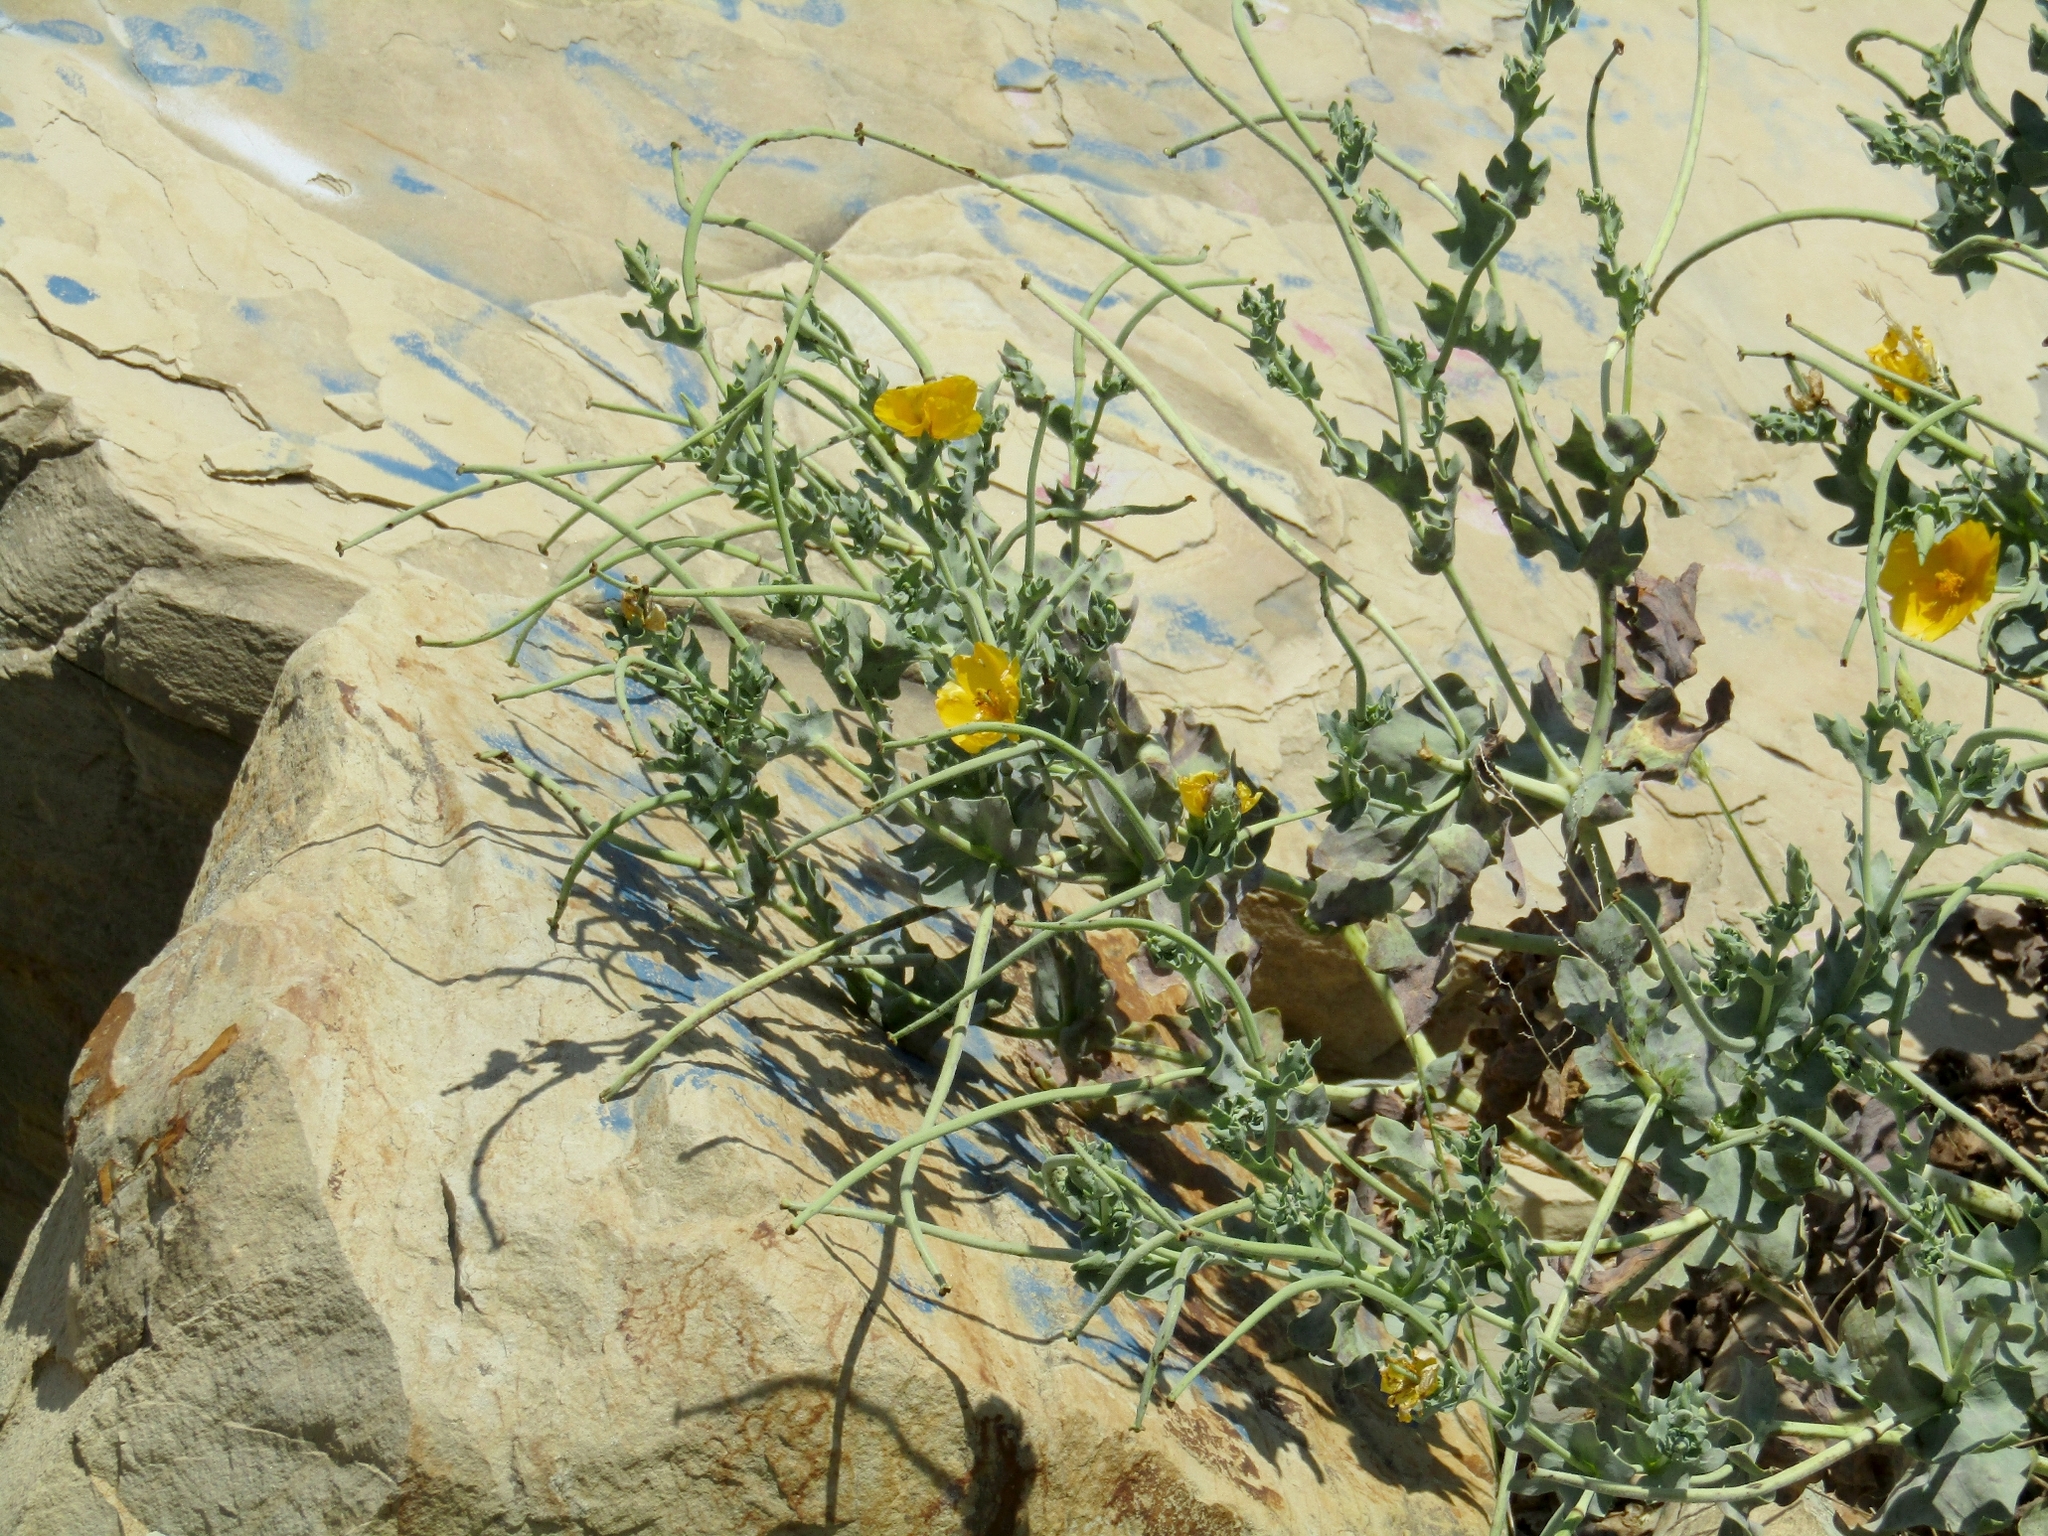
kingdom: Plantae
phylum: Tracheophyta
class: Magnoliopsida
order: Ranunculales
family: Papaveraceae
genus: Glaucium
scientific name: Glaucium flavum
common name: Yellow horned-poppy
